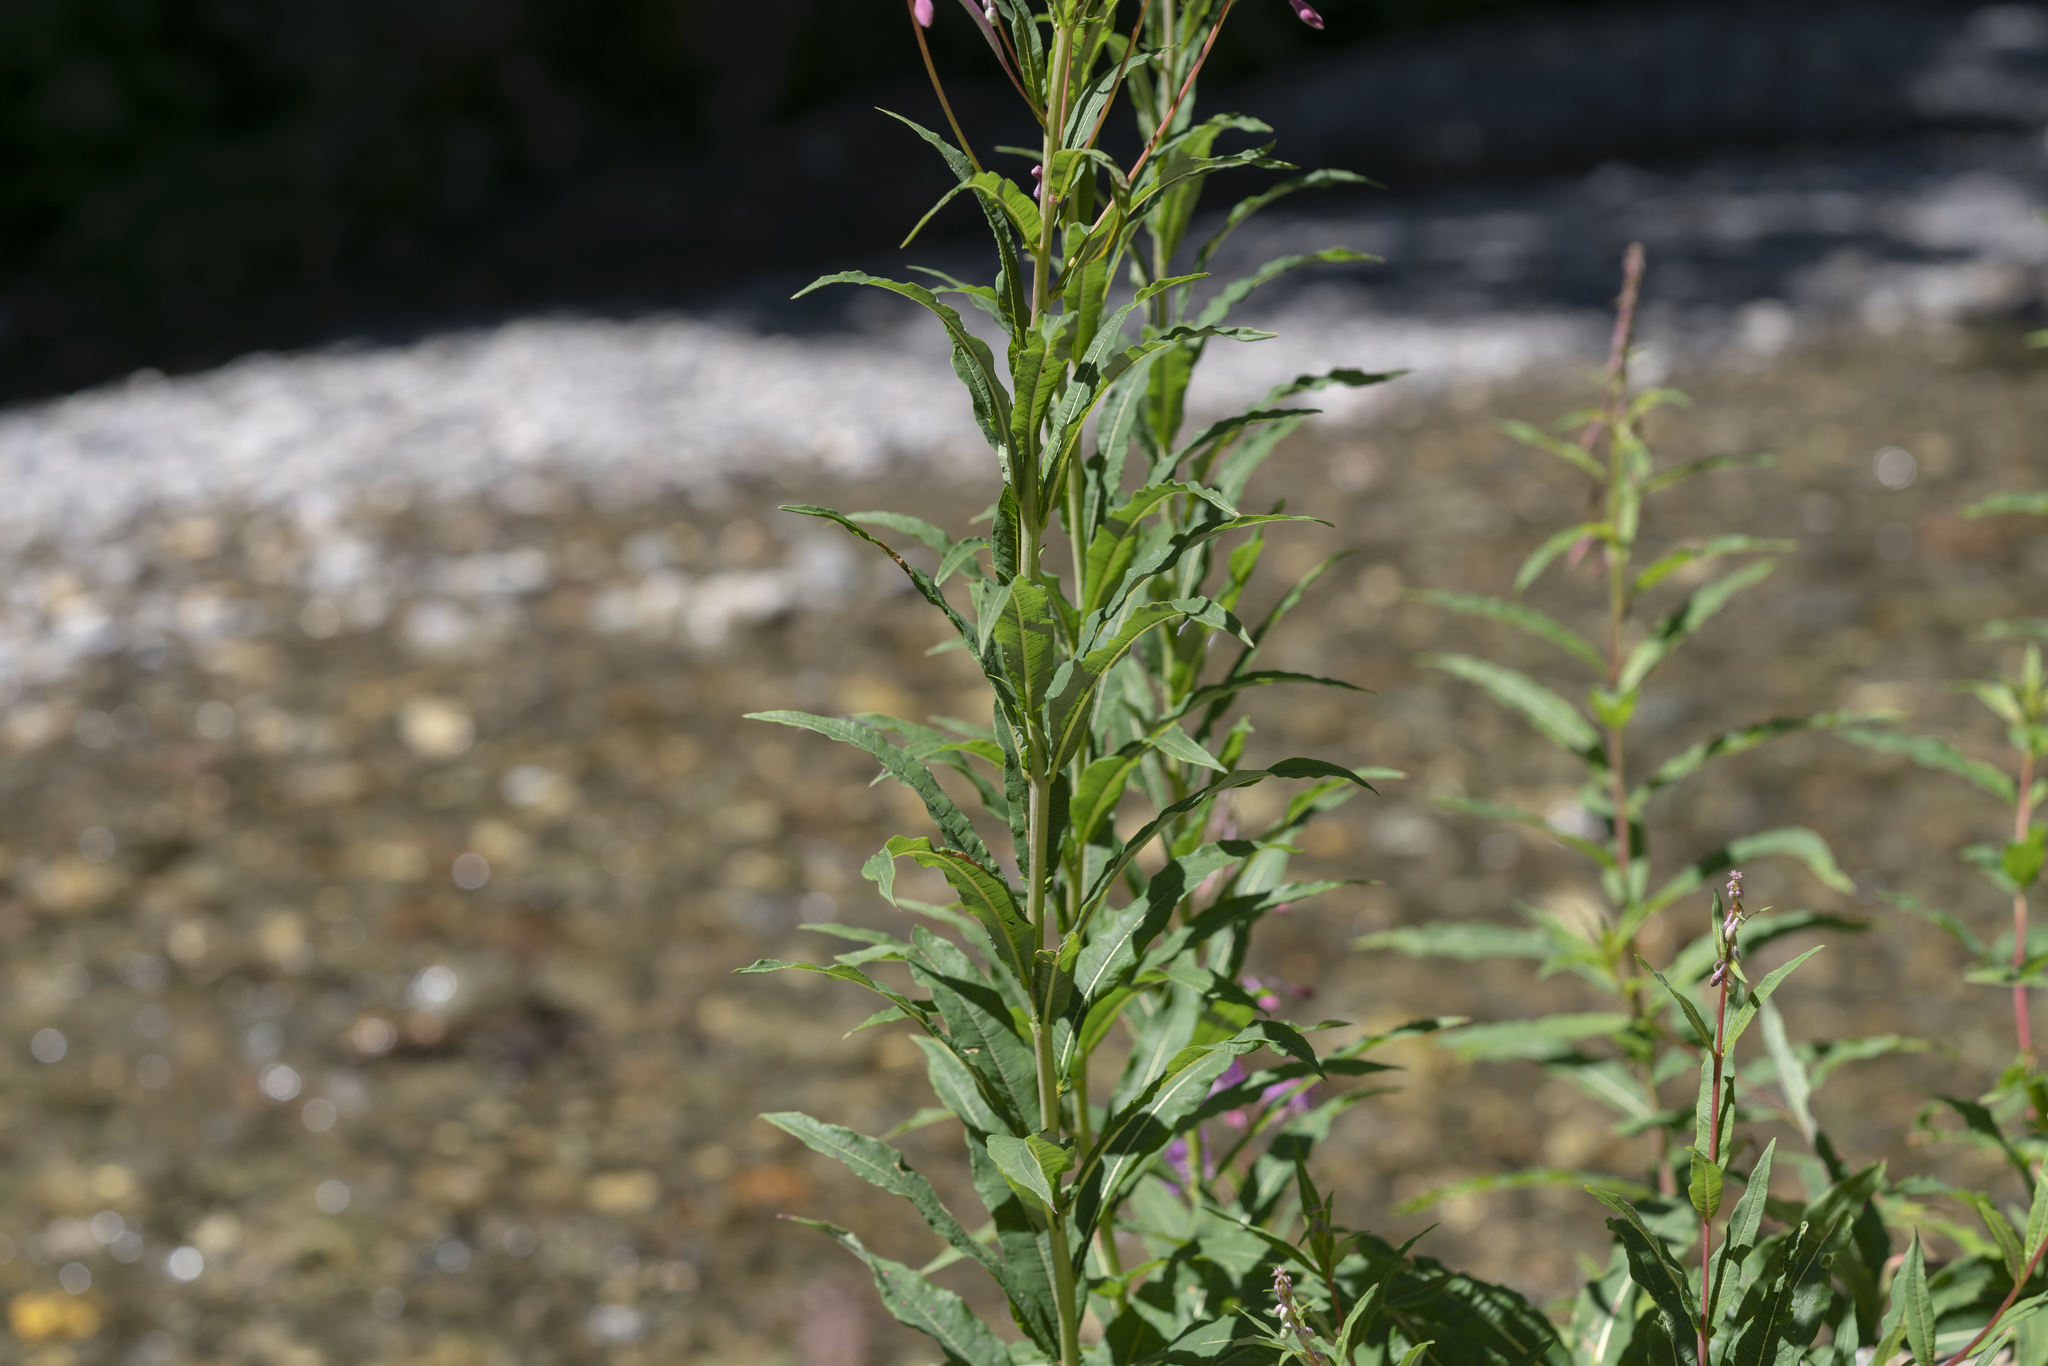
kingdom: Plantae
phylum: Tracheophyta
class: Magnoliopsida
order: Myrtales
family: Onagraceae
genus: Chamaenerion
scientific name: Chamaenerion angustifolium
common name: Fireweed
